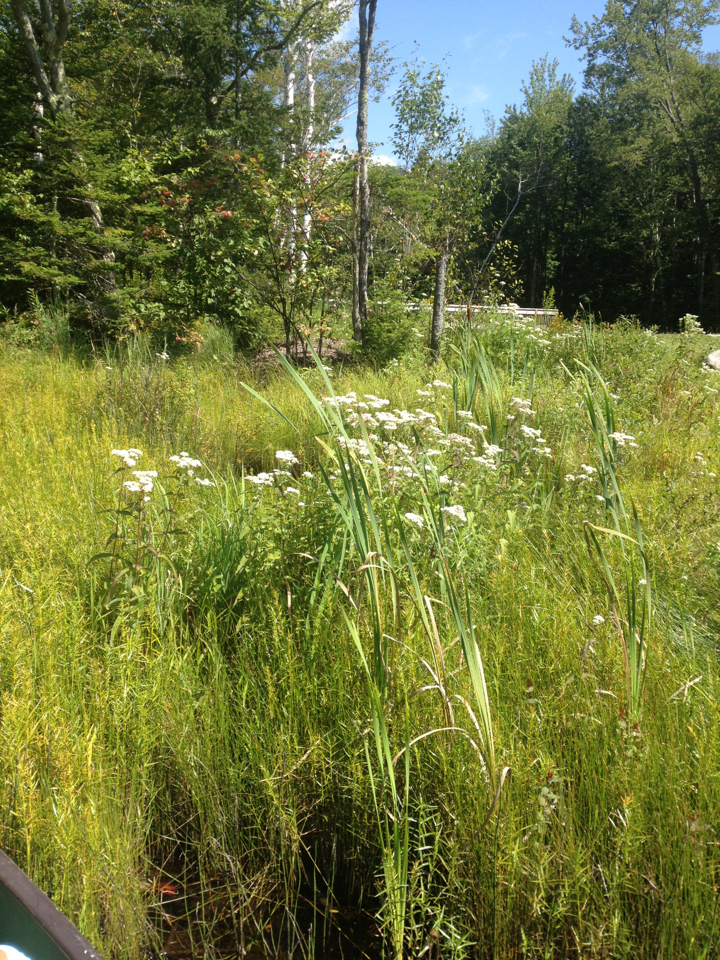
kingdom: Plantae
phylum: Tracheophyta
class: Magnoliopsida
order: Asterales
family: Asteraceae
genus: Eupatorium
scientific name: Eupatorium perfoliatum
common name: Boneset
